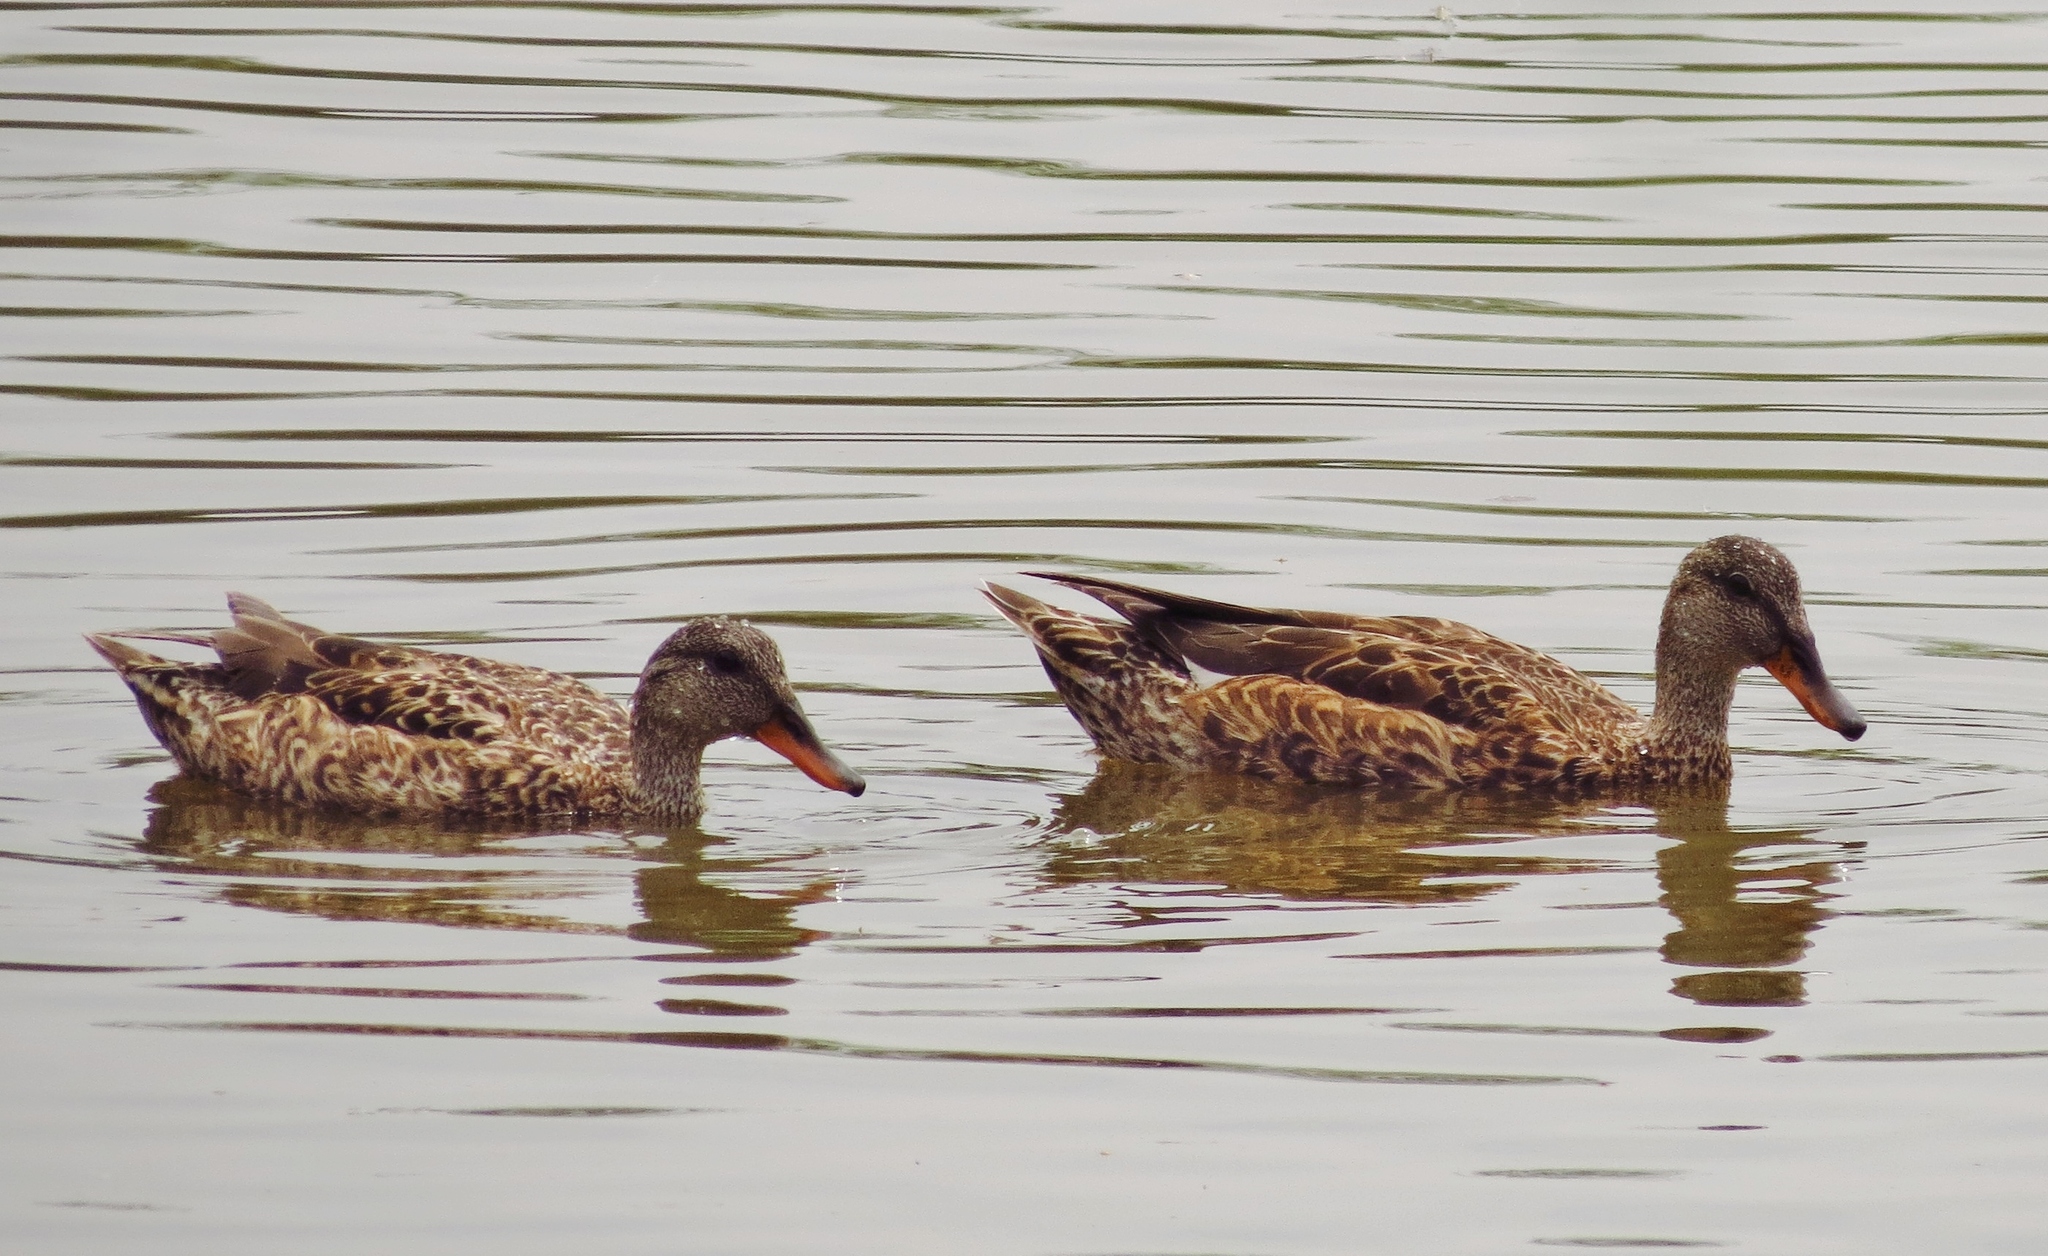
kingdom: Animalia
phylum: Chordata
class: Aves
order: Anseriformes
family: Anatidae
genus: Mareca
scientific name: Mareca strepera
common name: Gadwall
